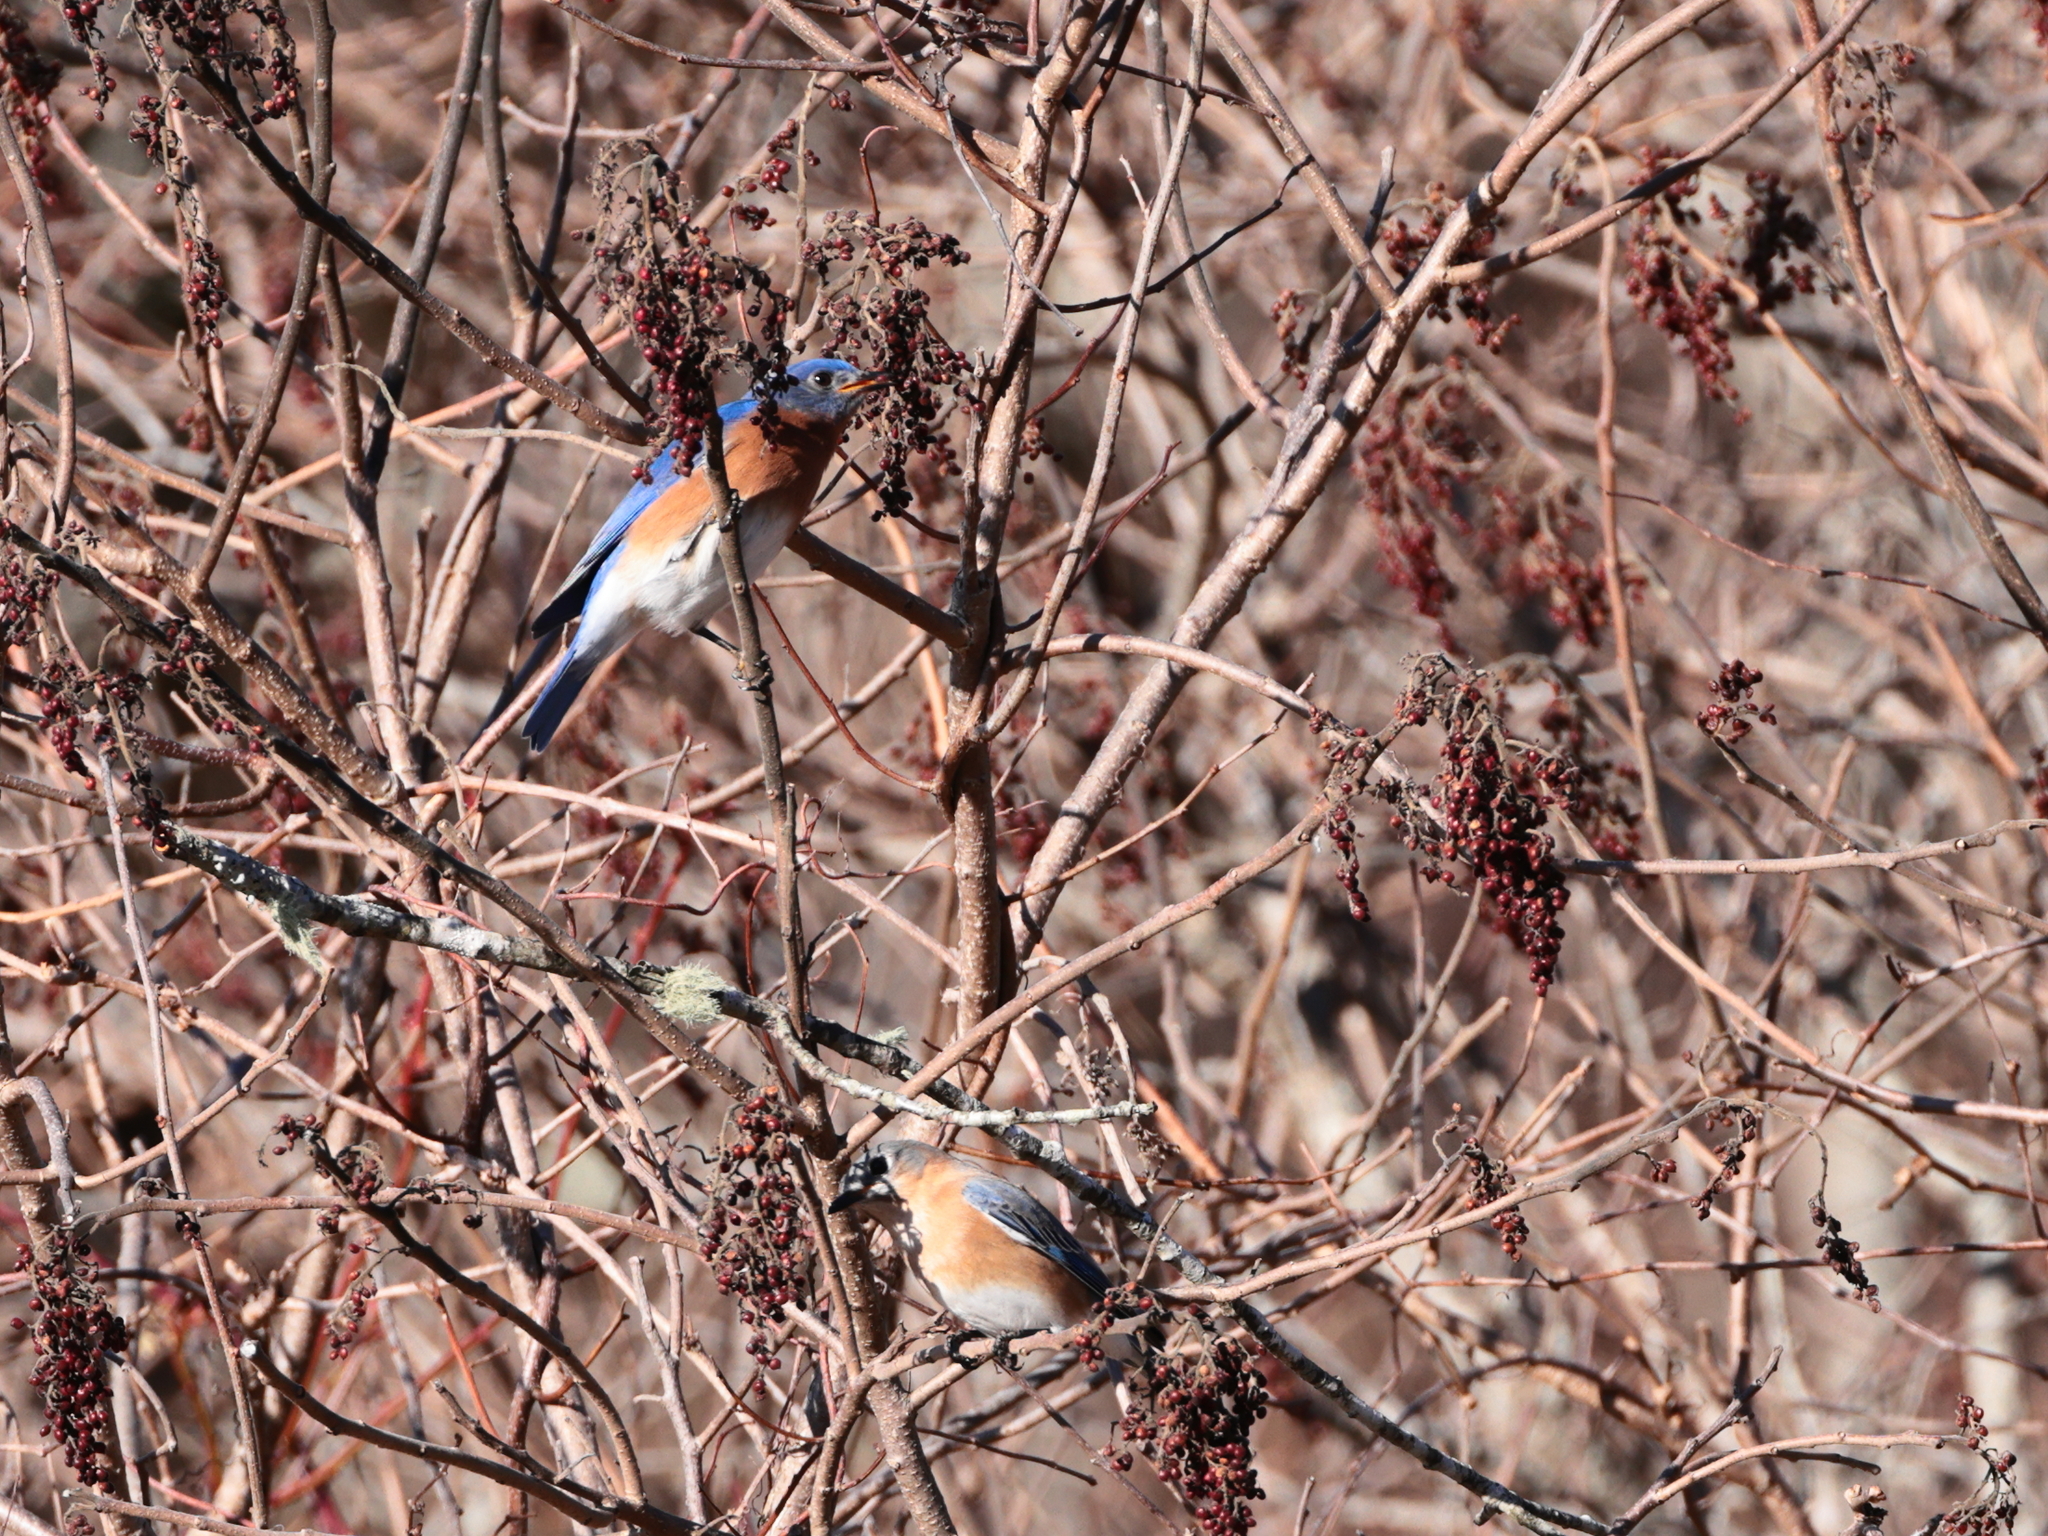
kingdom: Animalia
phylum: Chordata
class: Aves
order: Passeriformes
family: Turdidae
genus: Sialia
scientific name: Sialia sialis
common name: Eastern bluebird
